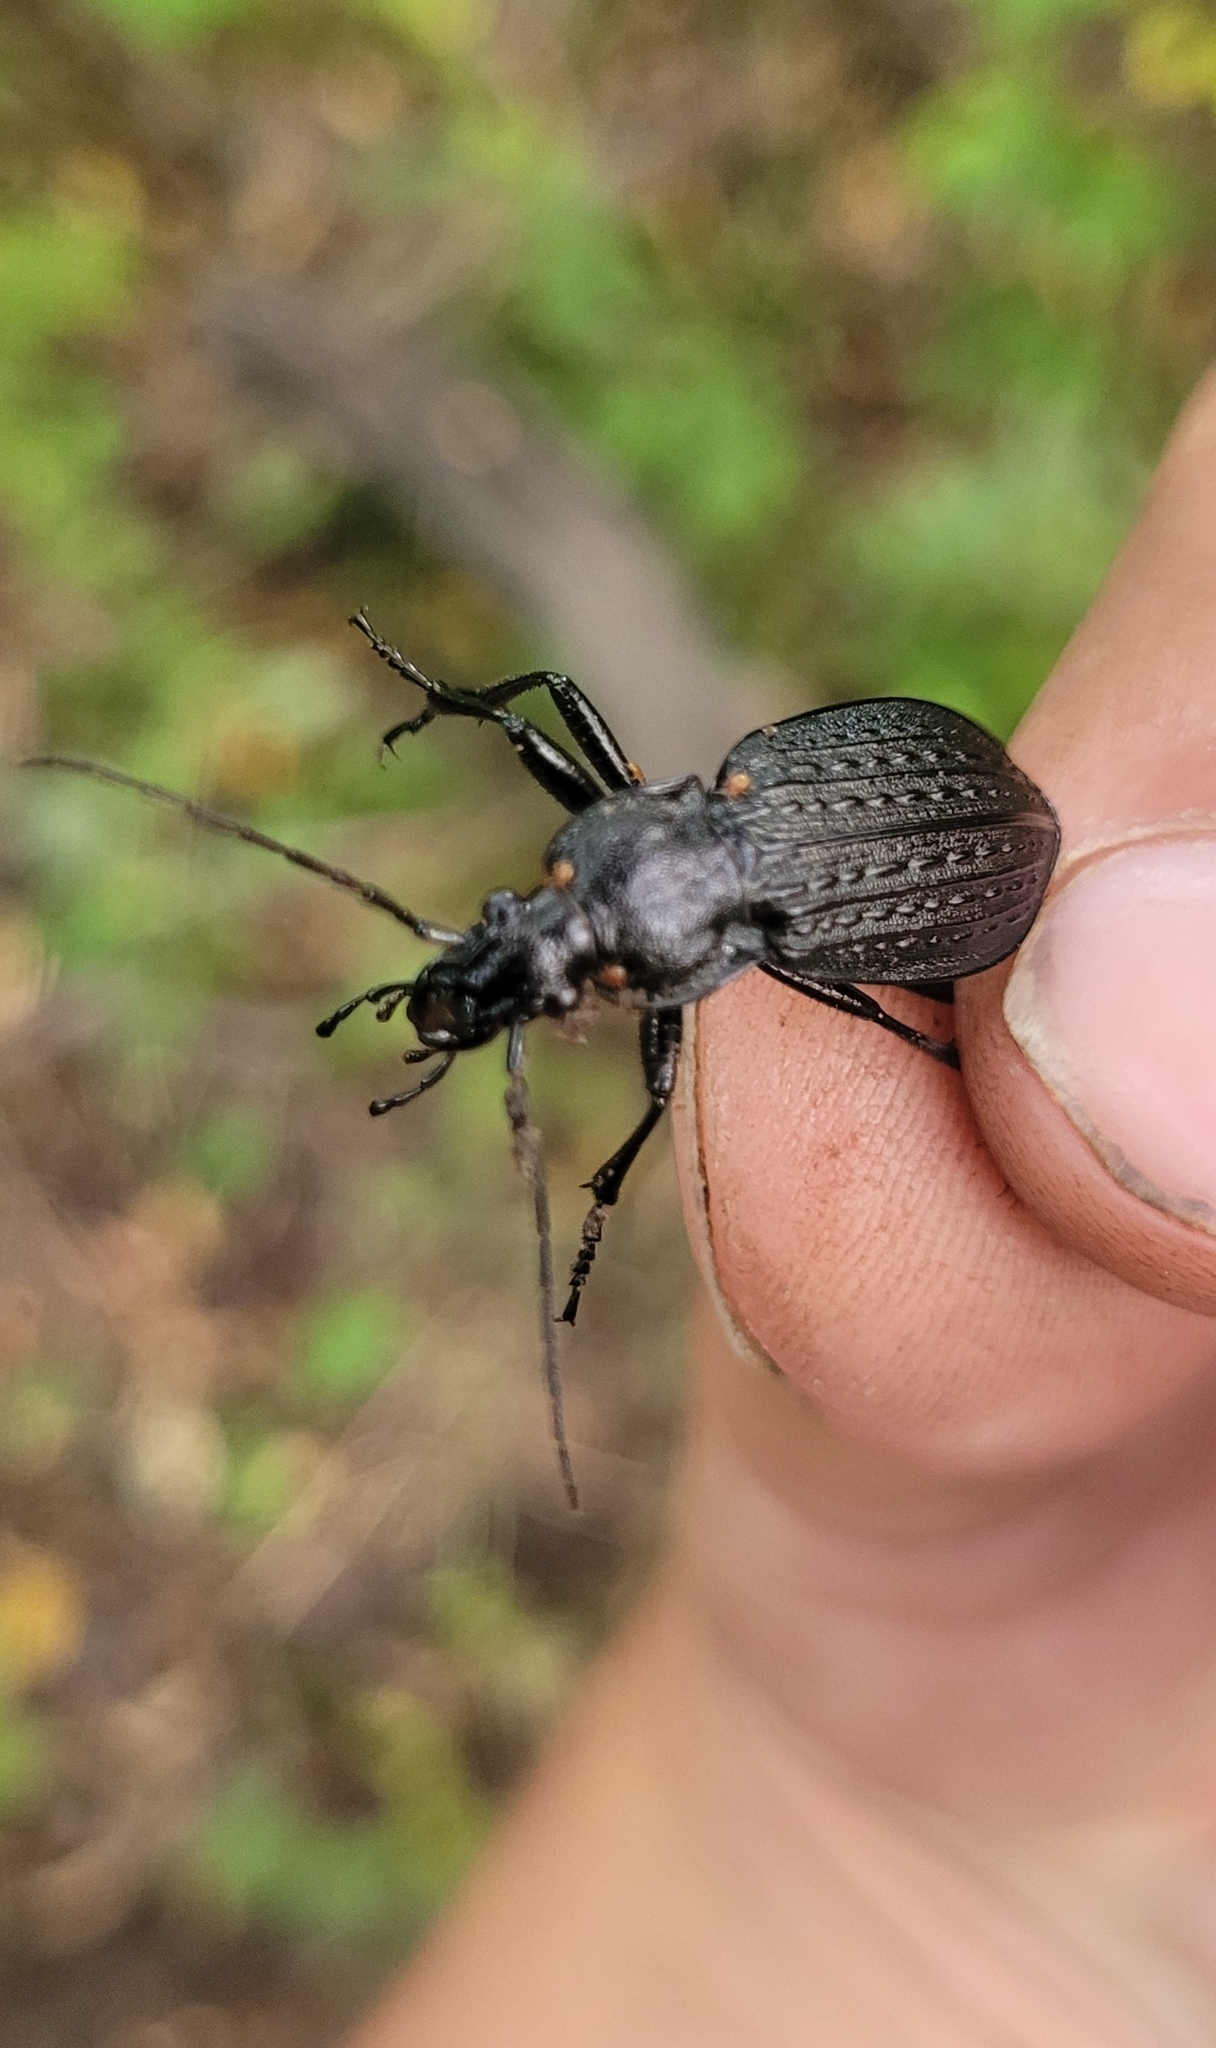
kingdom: Animalia
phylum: Arthropoda
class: Insecta
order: Coleoptera
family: Carabidae
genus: Carabus
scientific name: Carabus granulatus
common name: Granulate ground beetle
